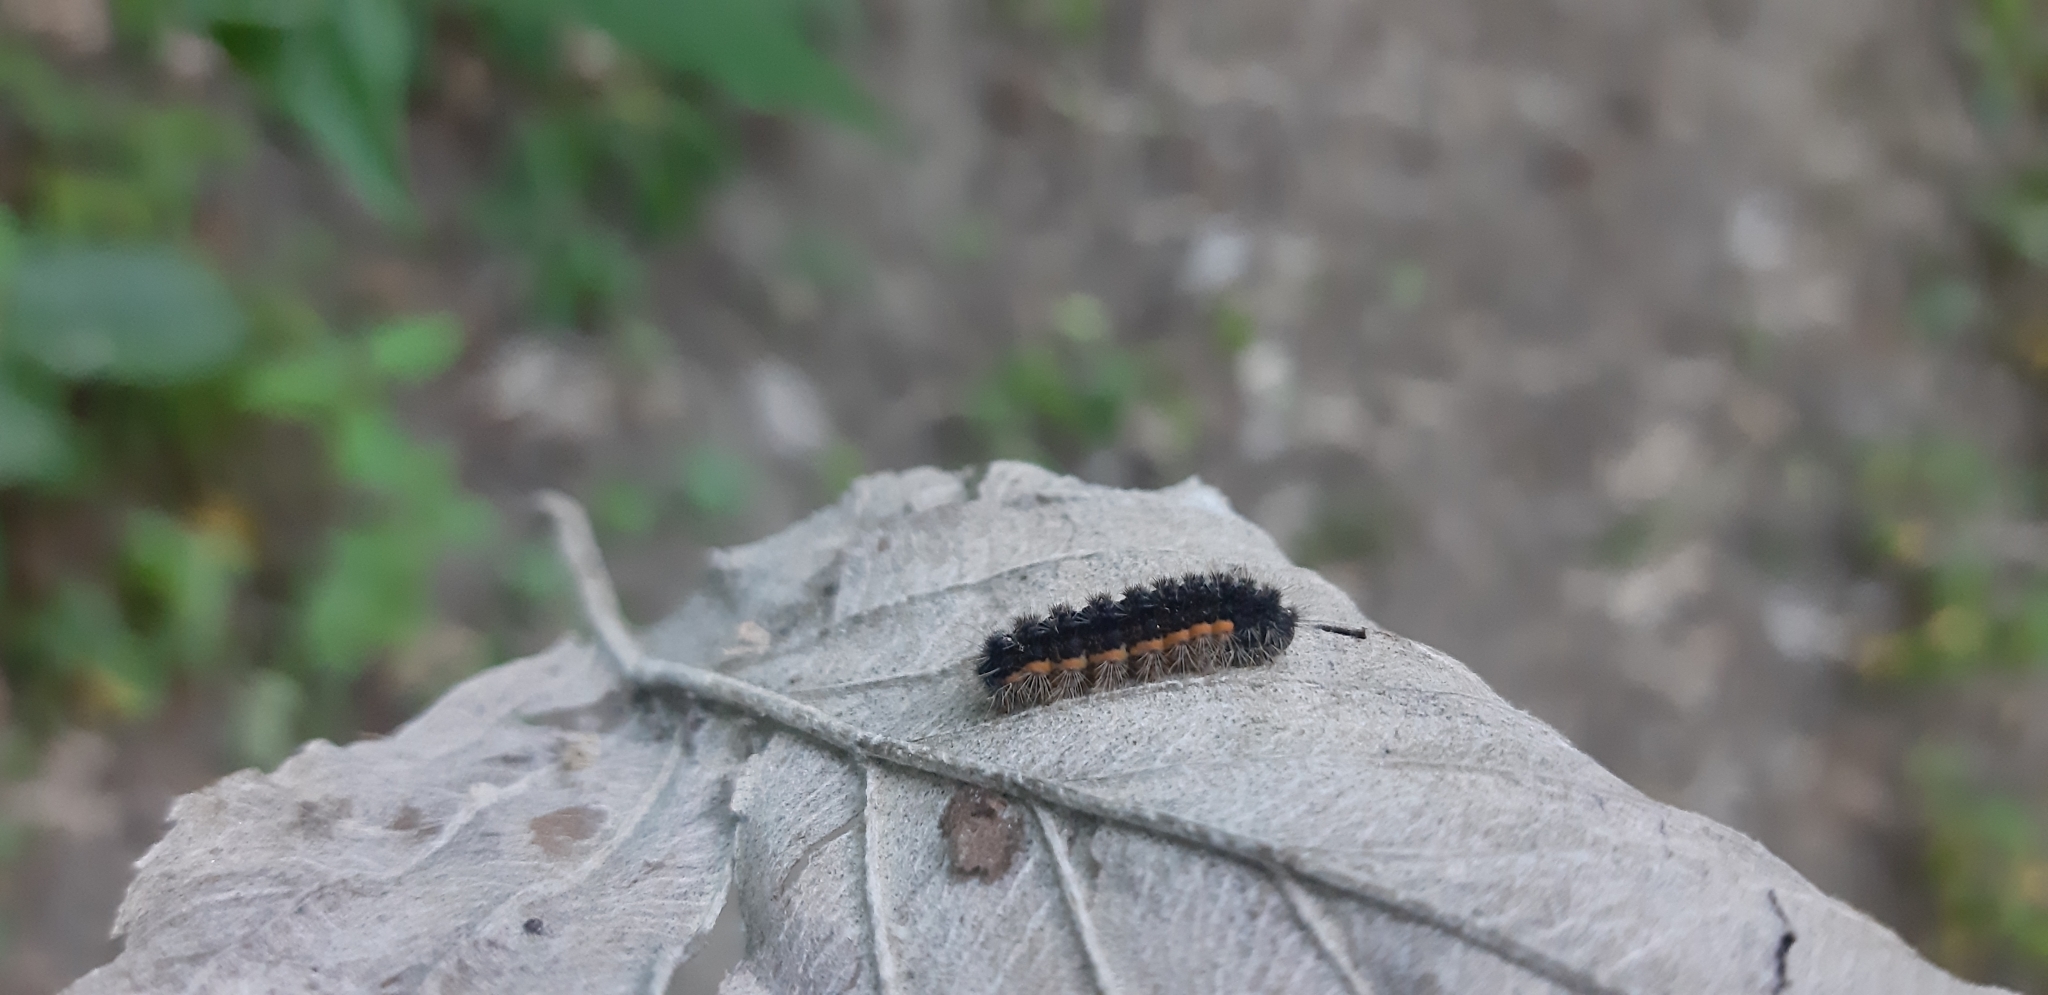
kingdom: Animalia
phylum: Arthropoda
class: Insecta
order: Lepidoptera
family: Erebidae
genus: Nyea
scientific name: Nyea lurideola
